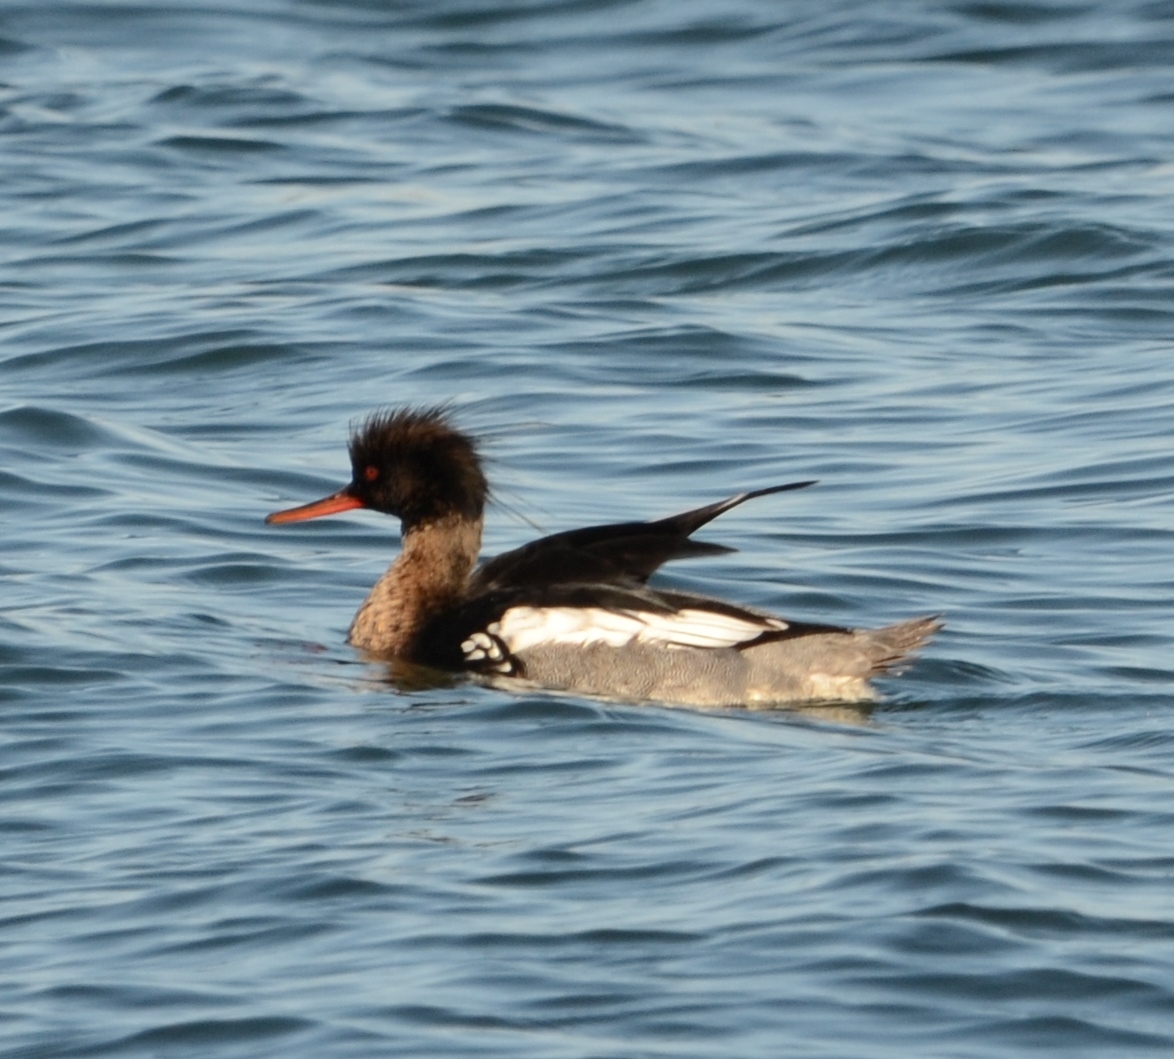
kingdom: Animalia
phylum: Chordata
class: Aves
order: Anseriformes
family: Anatidae
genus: Mergus
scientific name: Mergus serrator
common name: Red-breasted merganser
